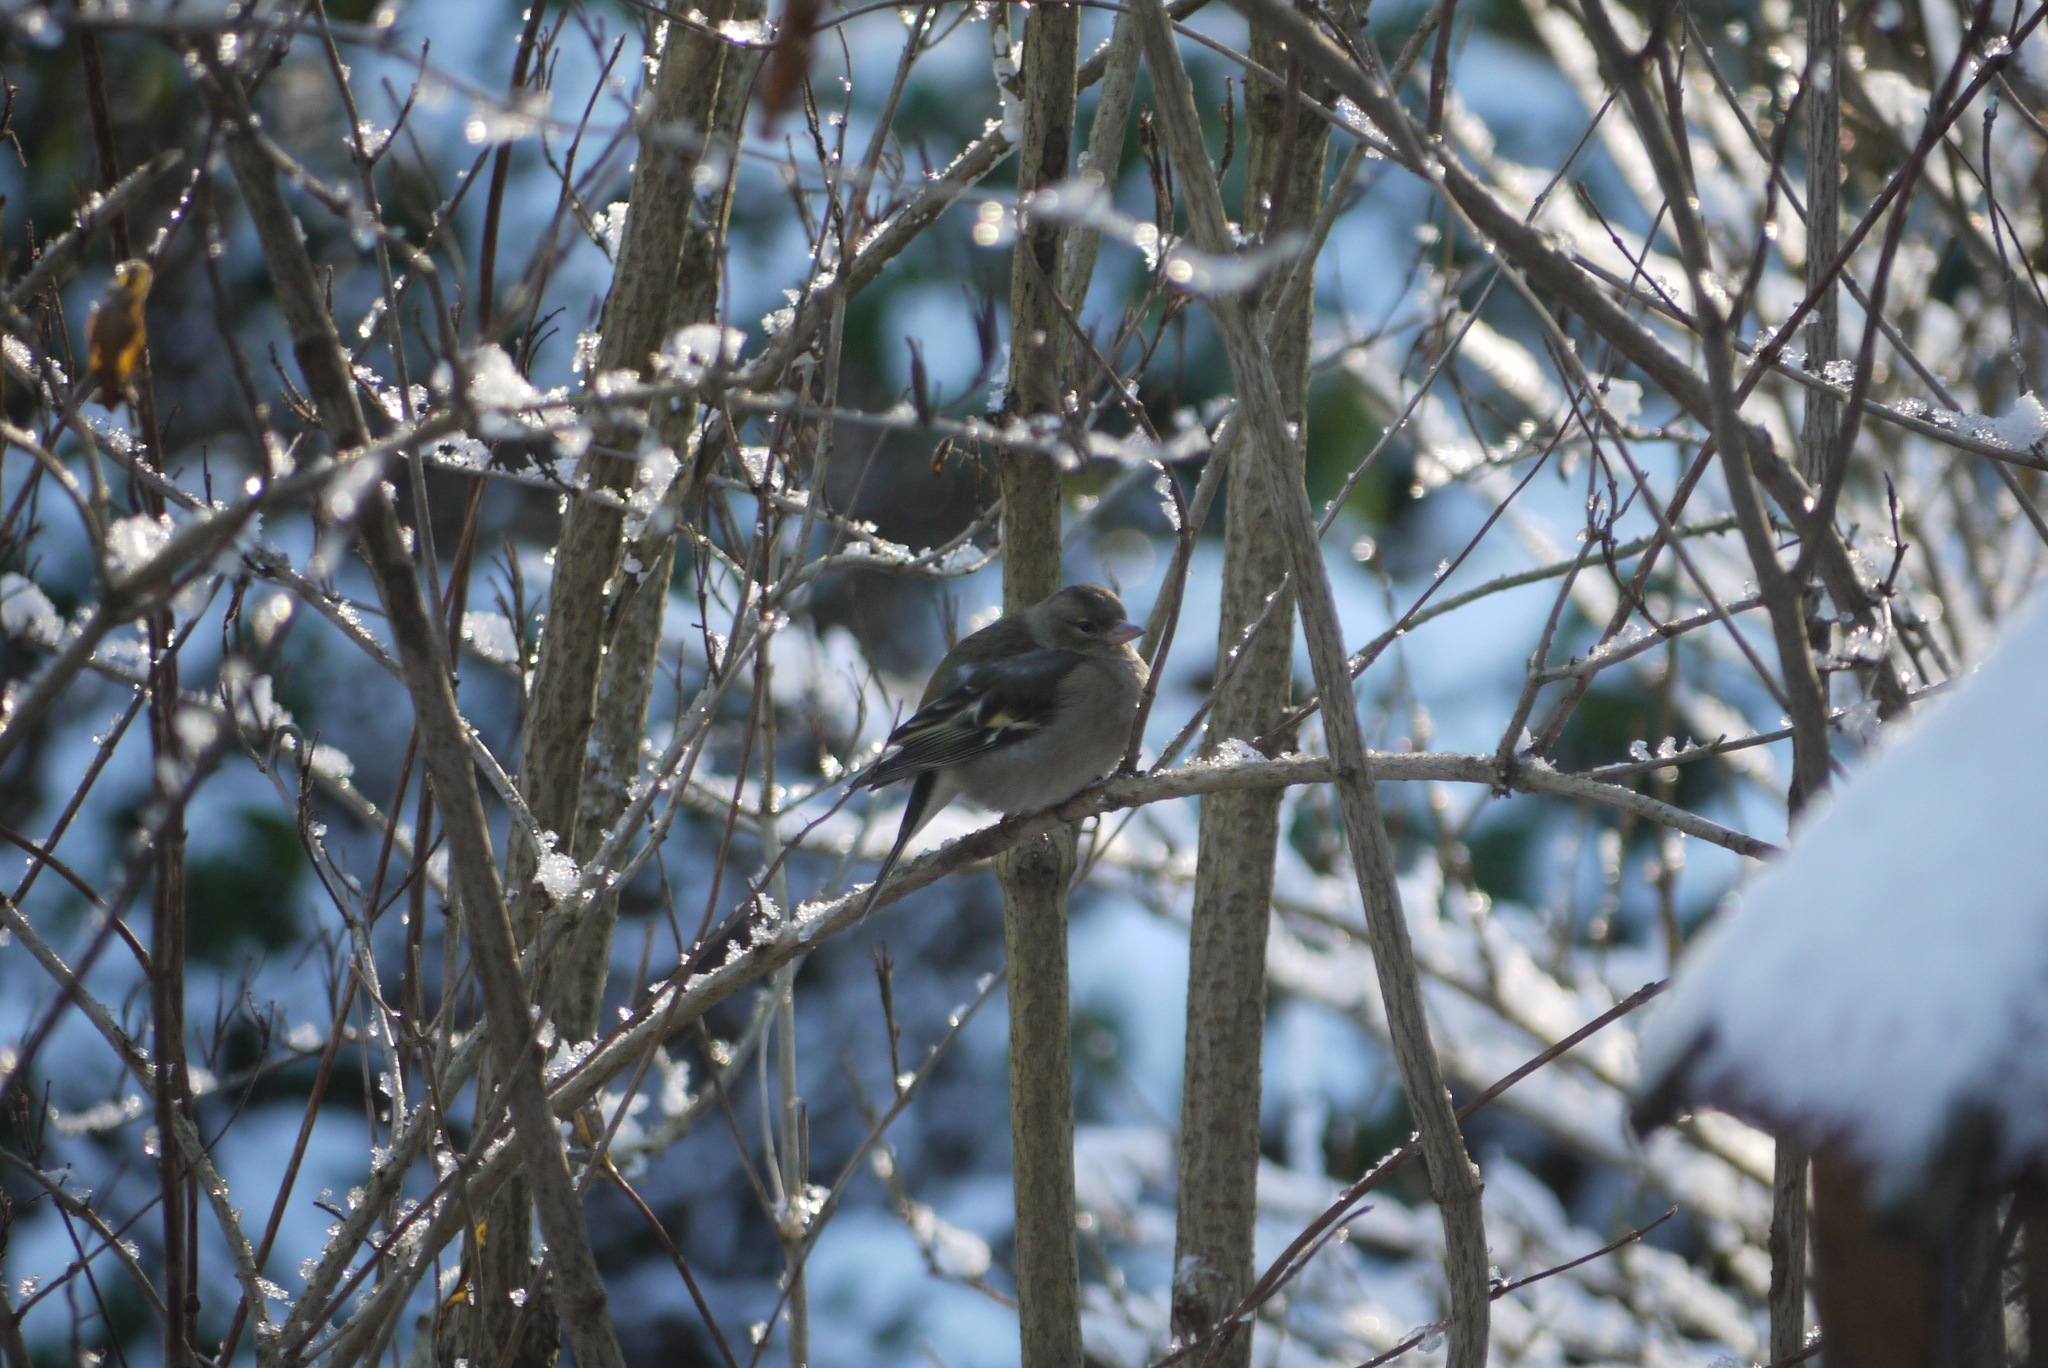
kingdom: Animalia
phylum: Chordata
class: Aves
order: Passeriformes
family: Fringillidae
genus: Fringilla
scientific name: Fringilla coelebs
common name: Common chaffinch
